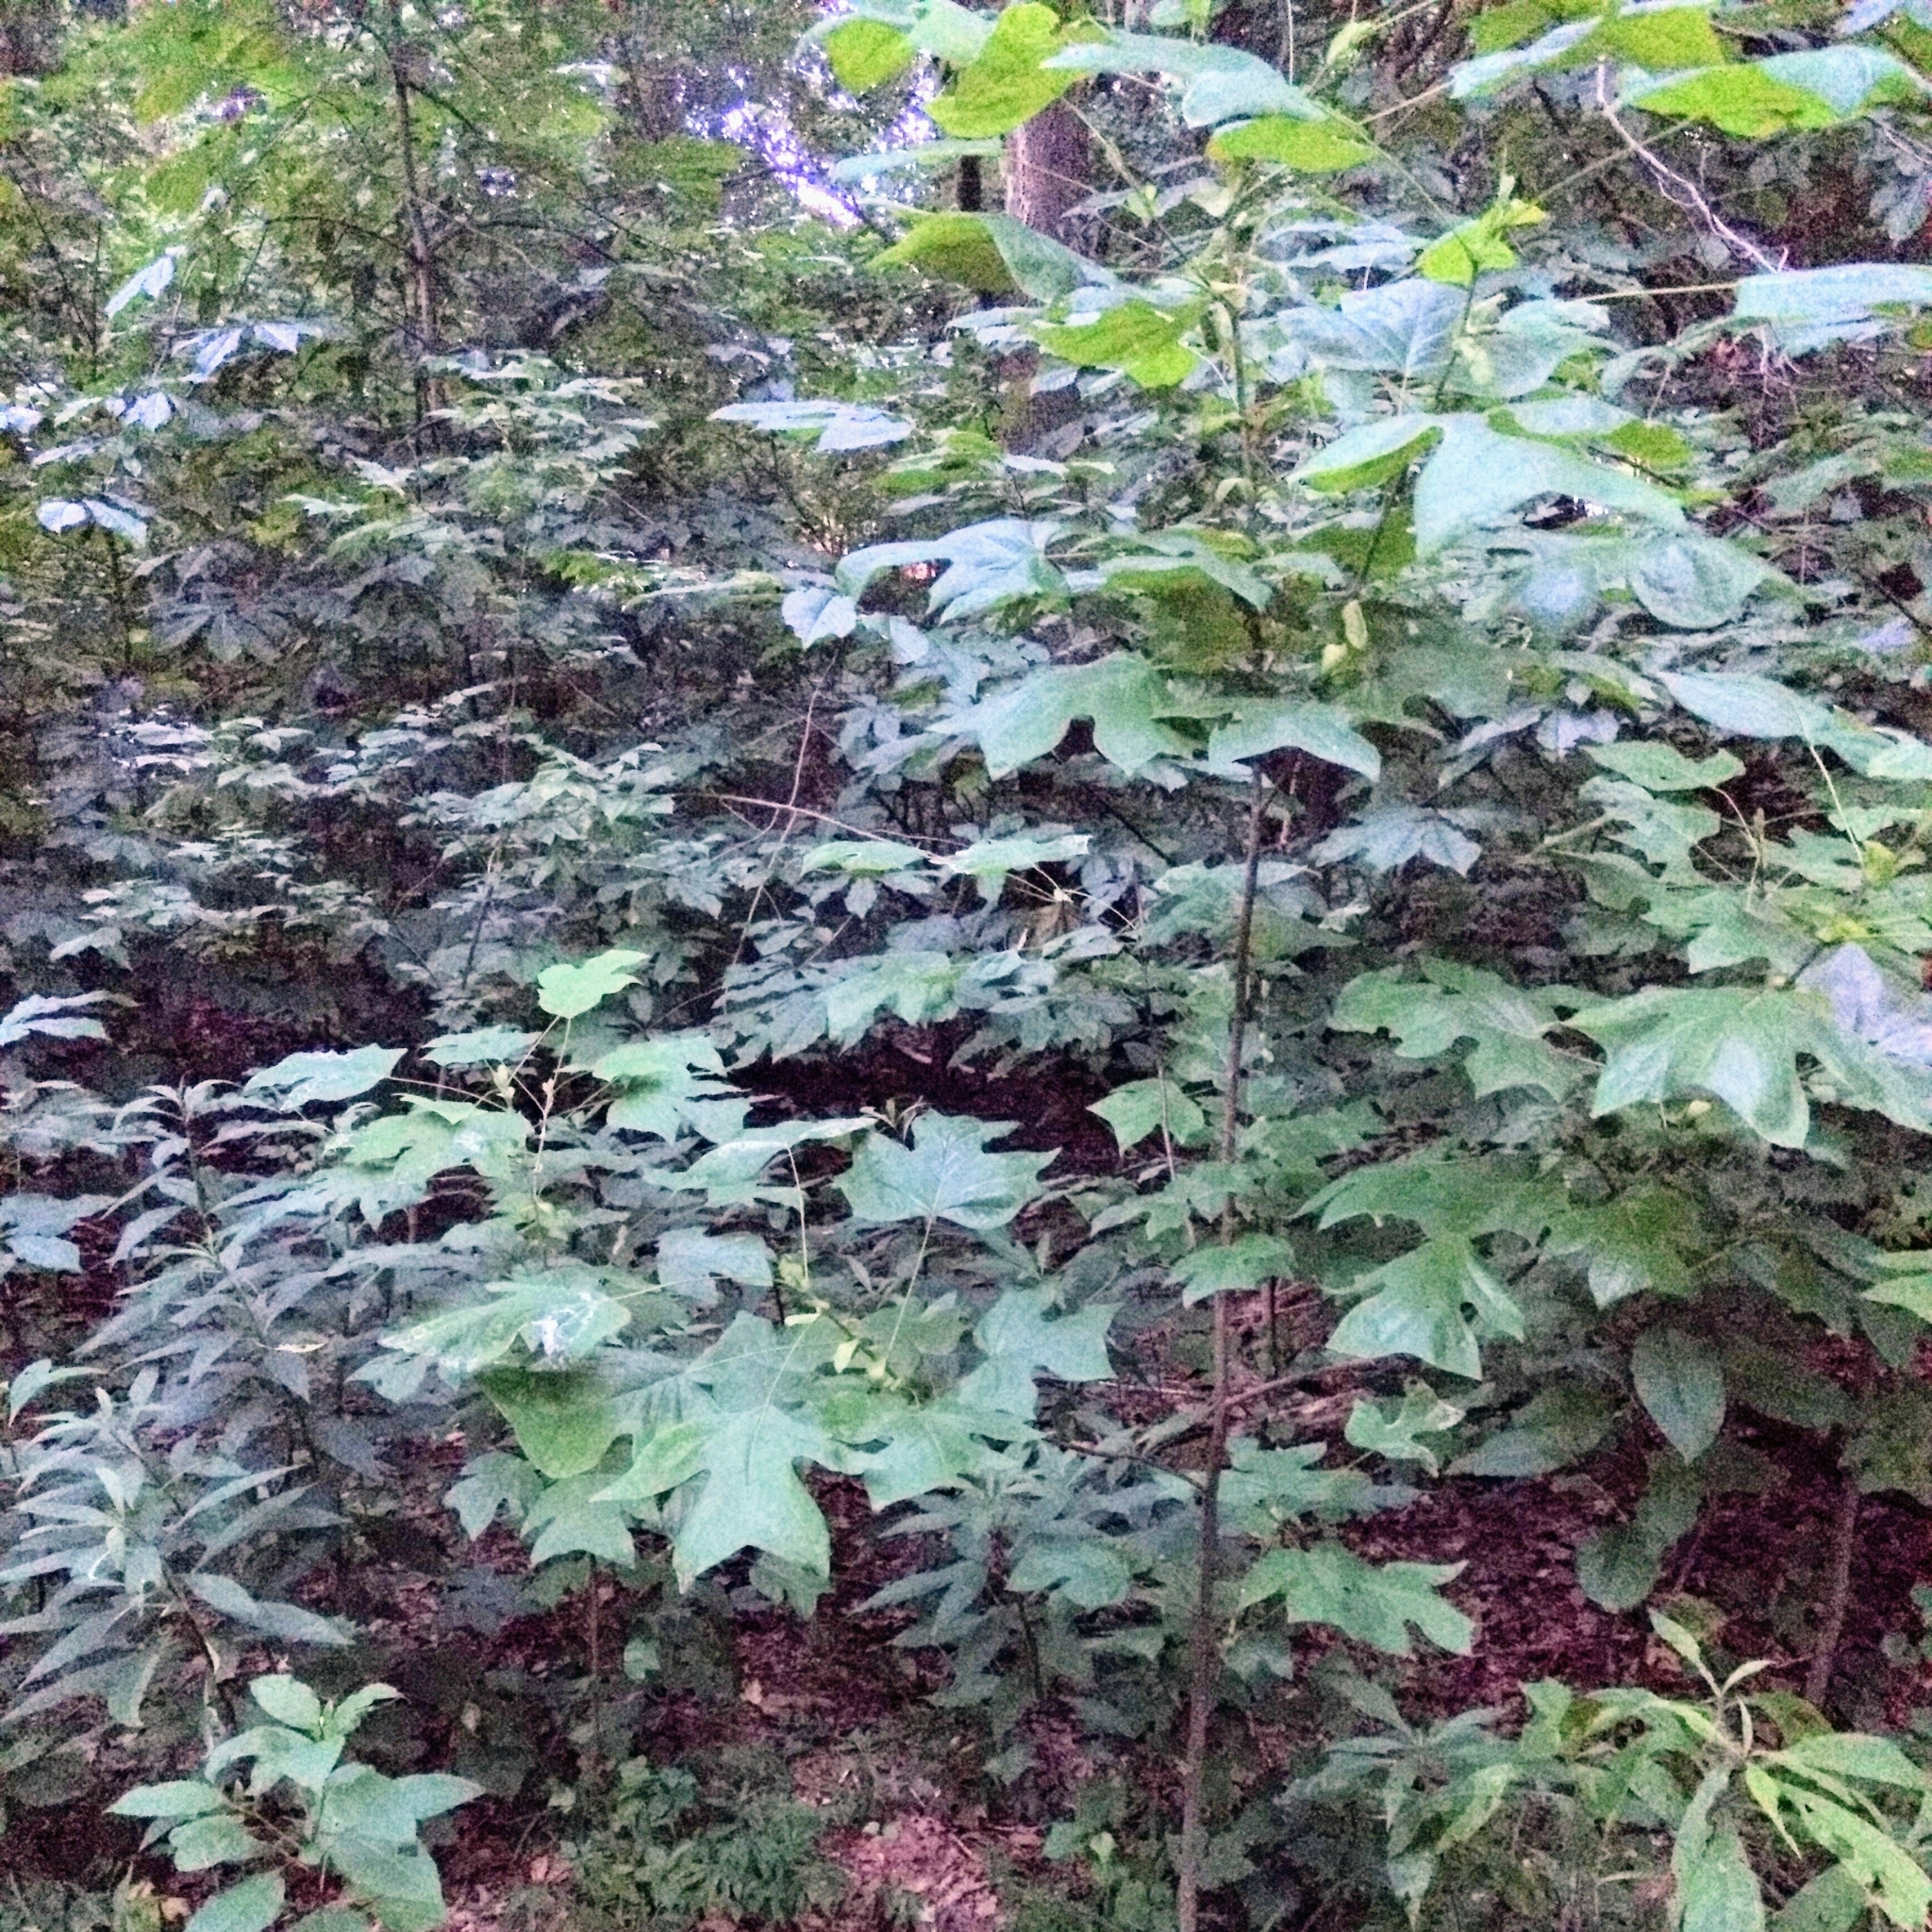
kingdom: Plantae
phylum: Tracheophyta
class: Magnoliopsida
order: Magnoliales
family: Magnoliaceae
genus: Liriodendron
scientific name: Liriodendron tulipifera
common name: Tulip tree
